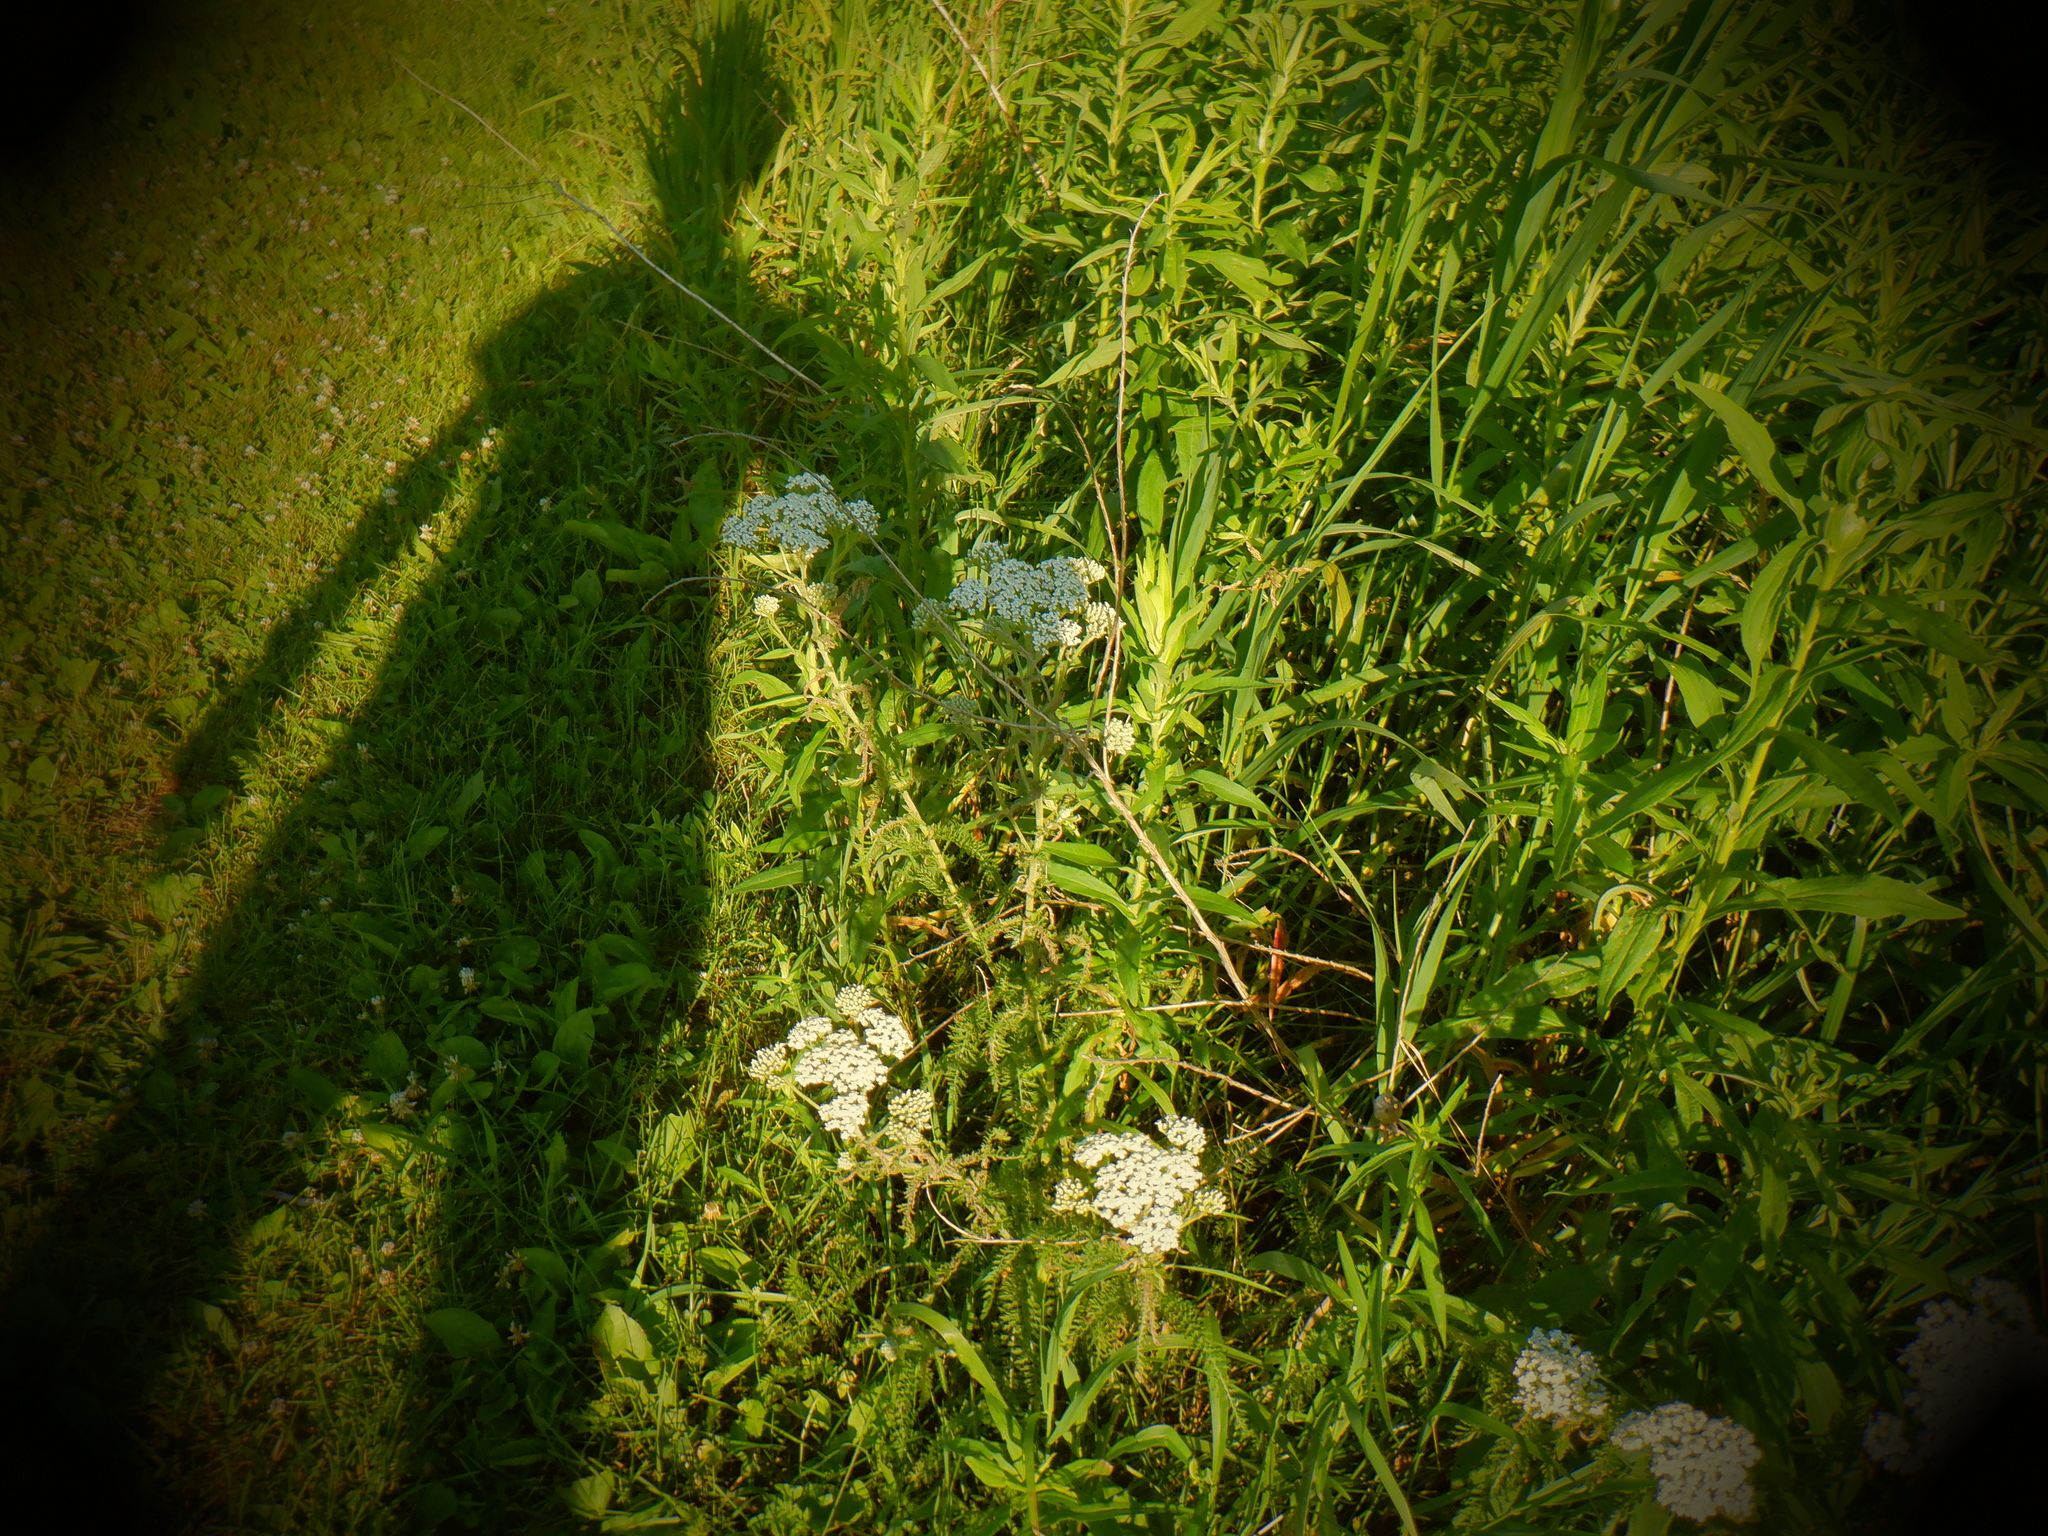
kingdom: Plantae
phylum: Tracheophyta
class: Magnoliopsida
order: Asterales
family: Asteraceae
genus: Achillea
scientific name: Achillea millefolium
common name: Yarrow
